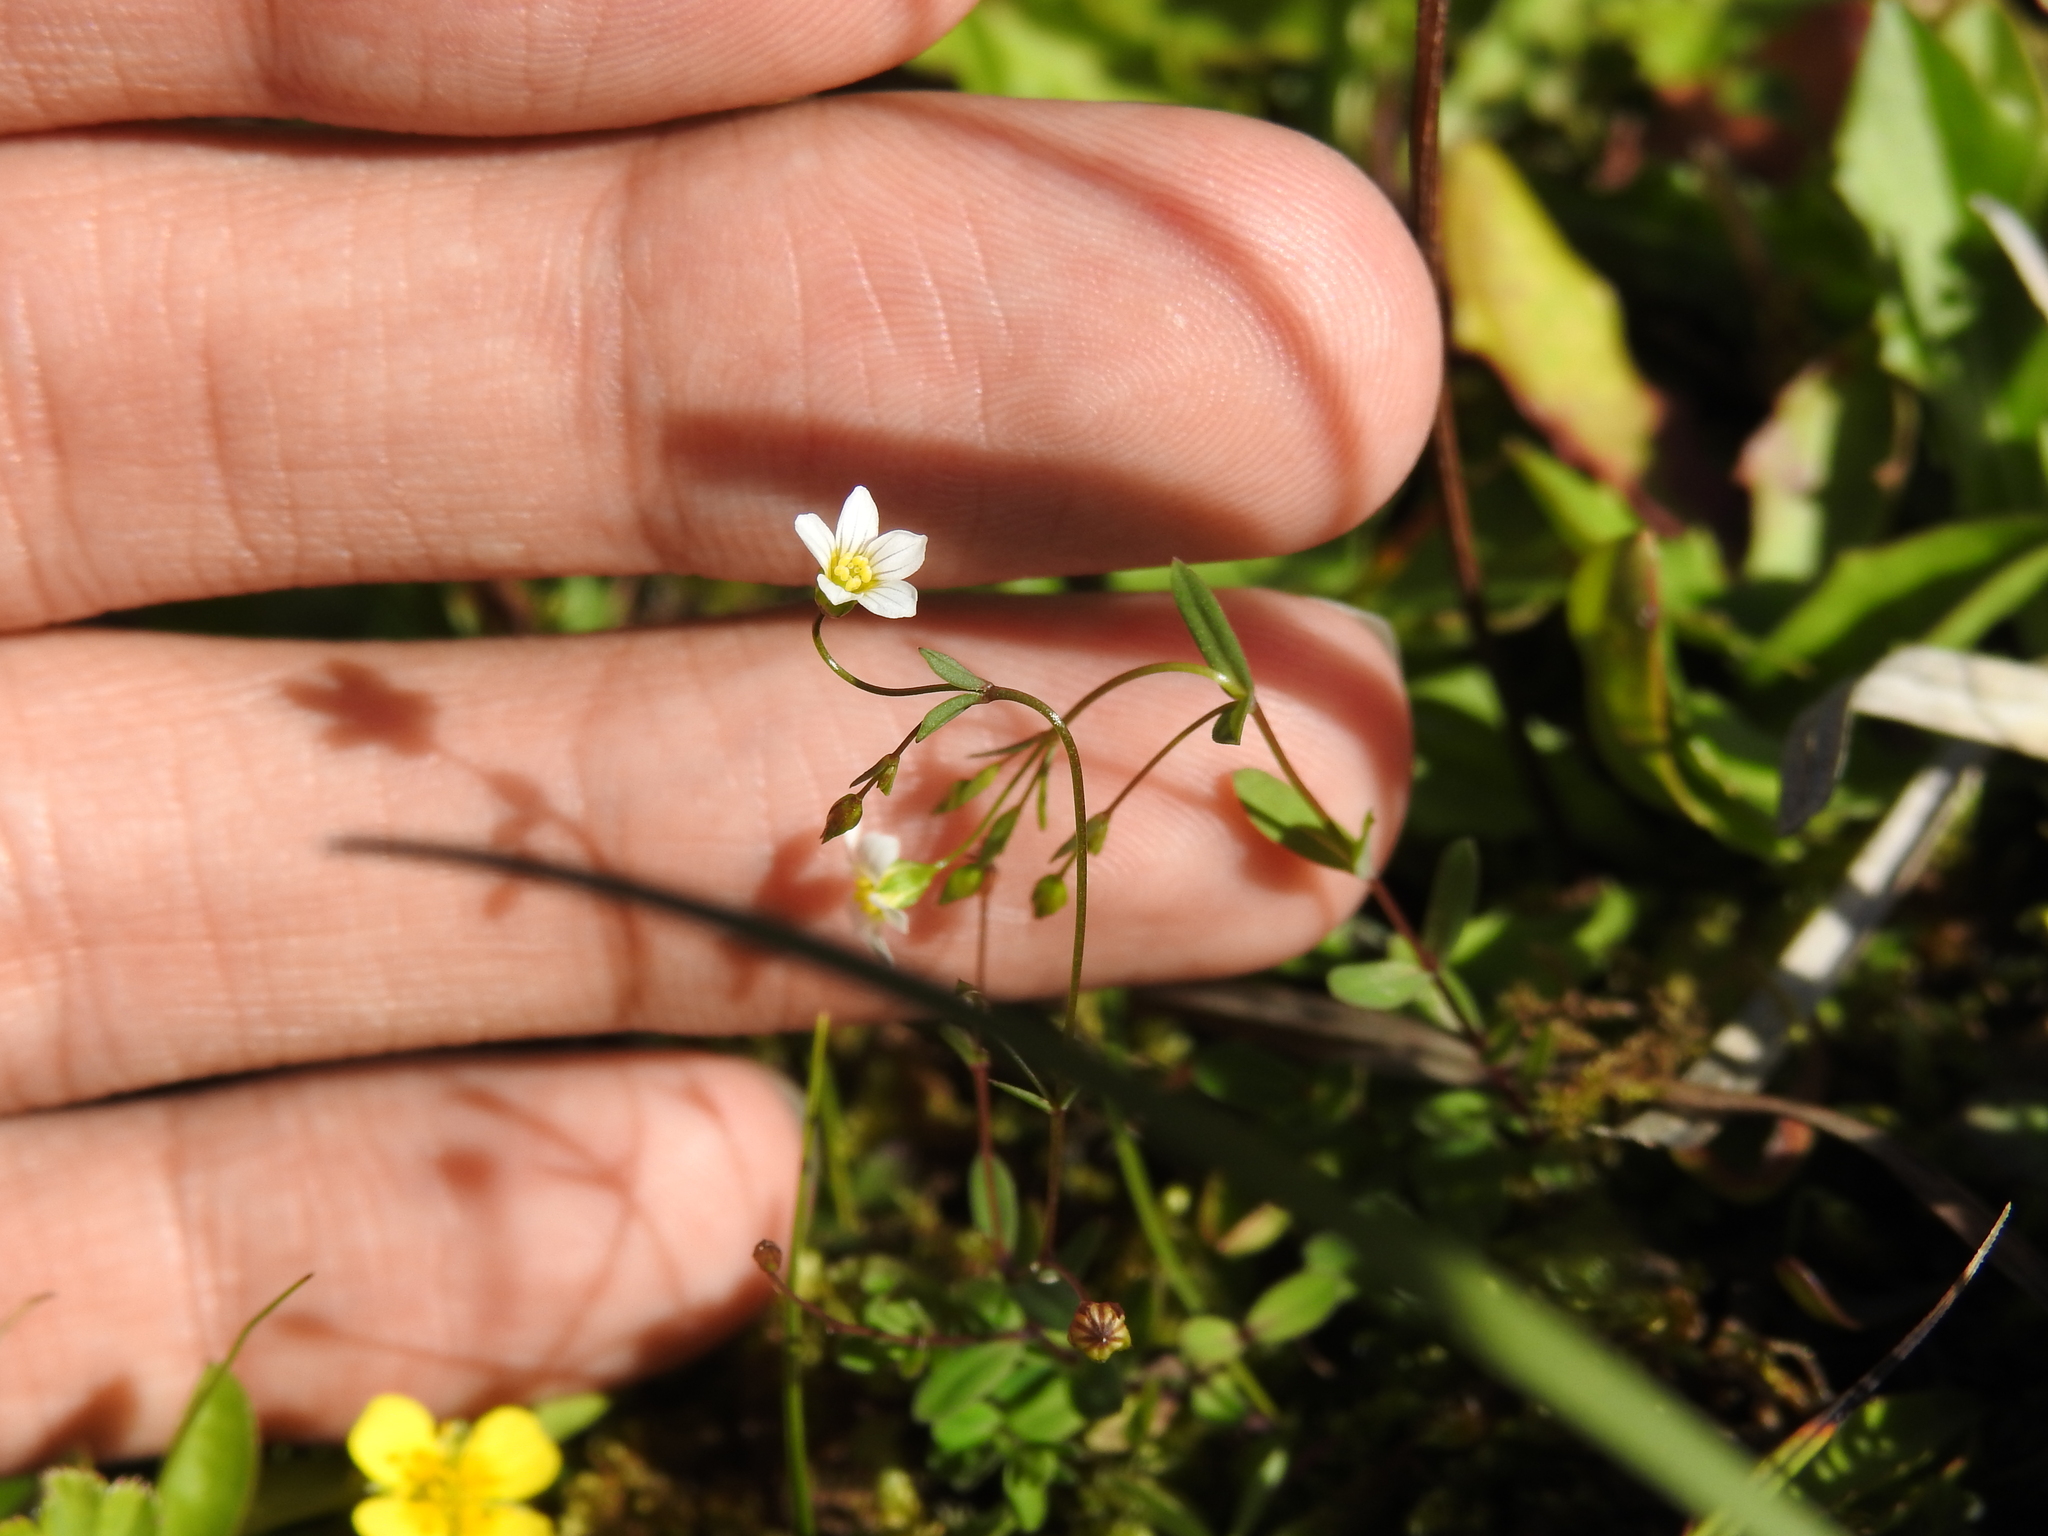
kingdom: Plantae
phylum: Tracheophyta
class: Magnoliopsida
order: Malpighiales
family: Linaceae
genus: Linum
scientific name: Linum catharticum
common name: Fairy flax
